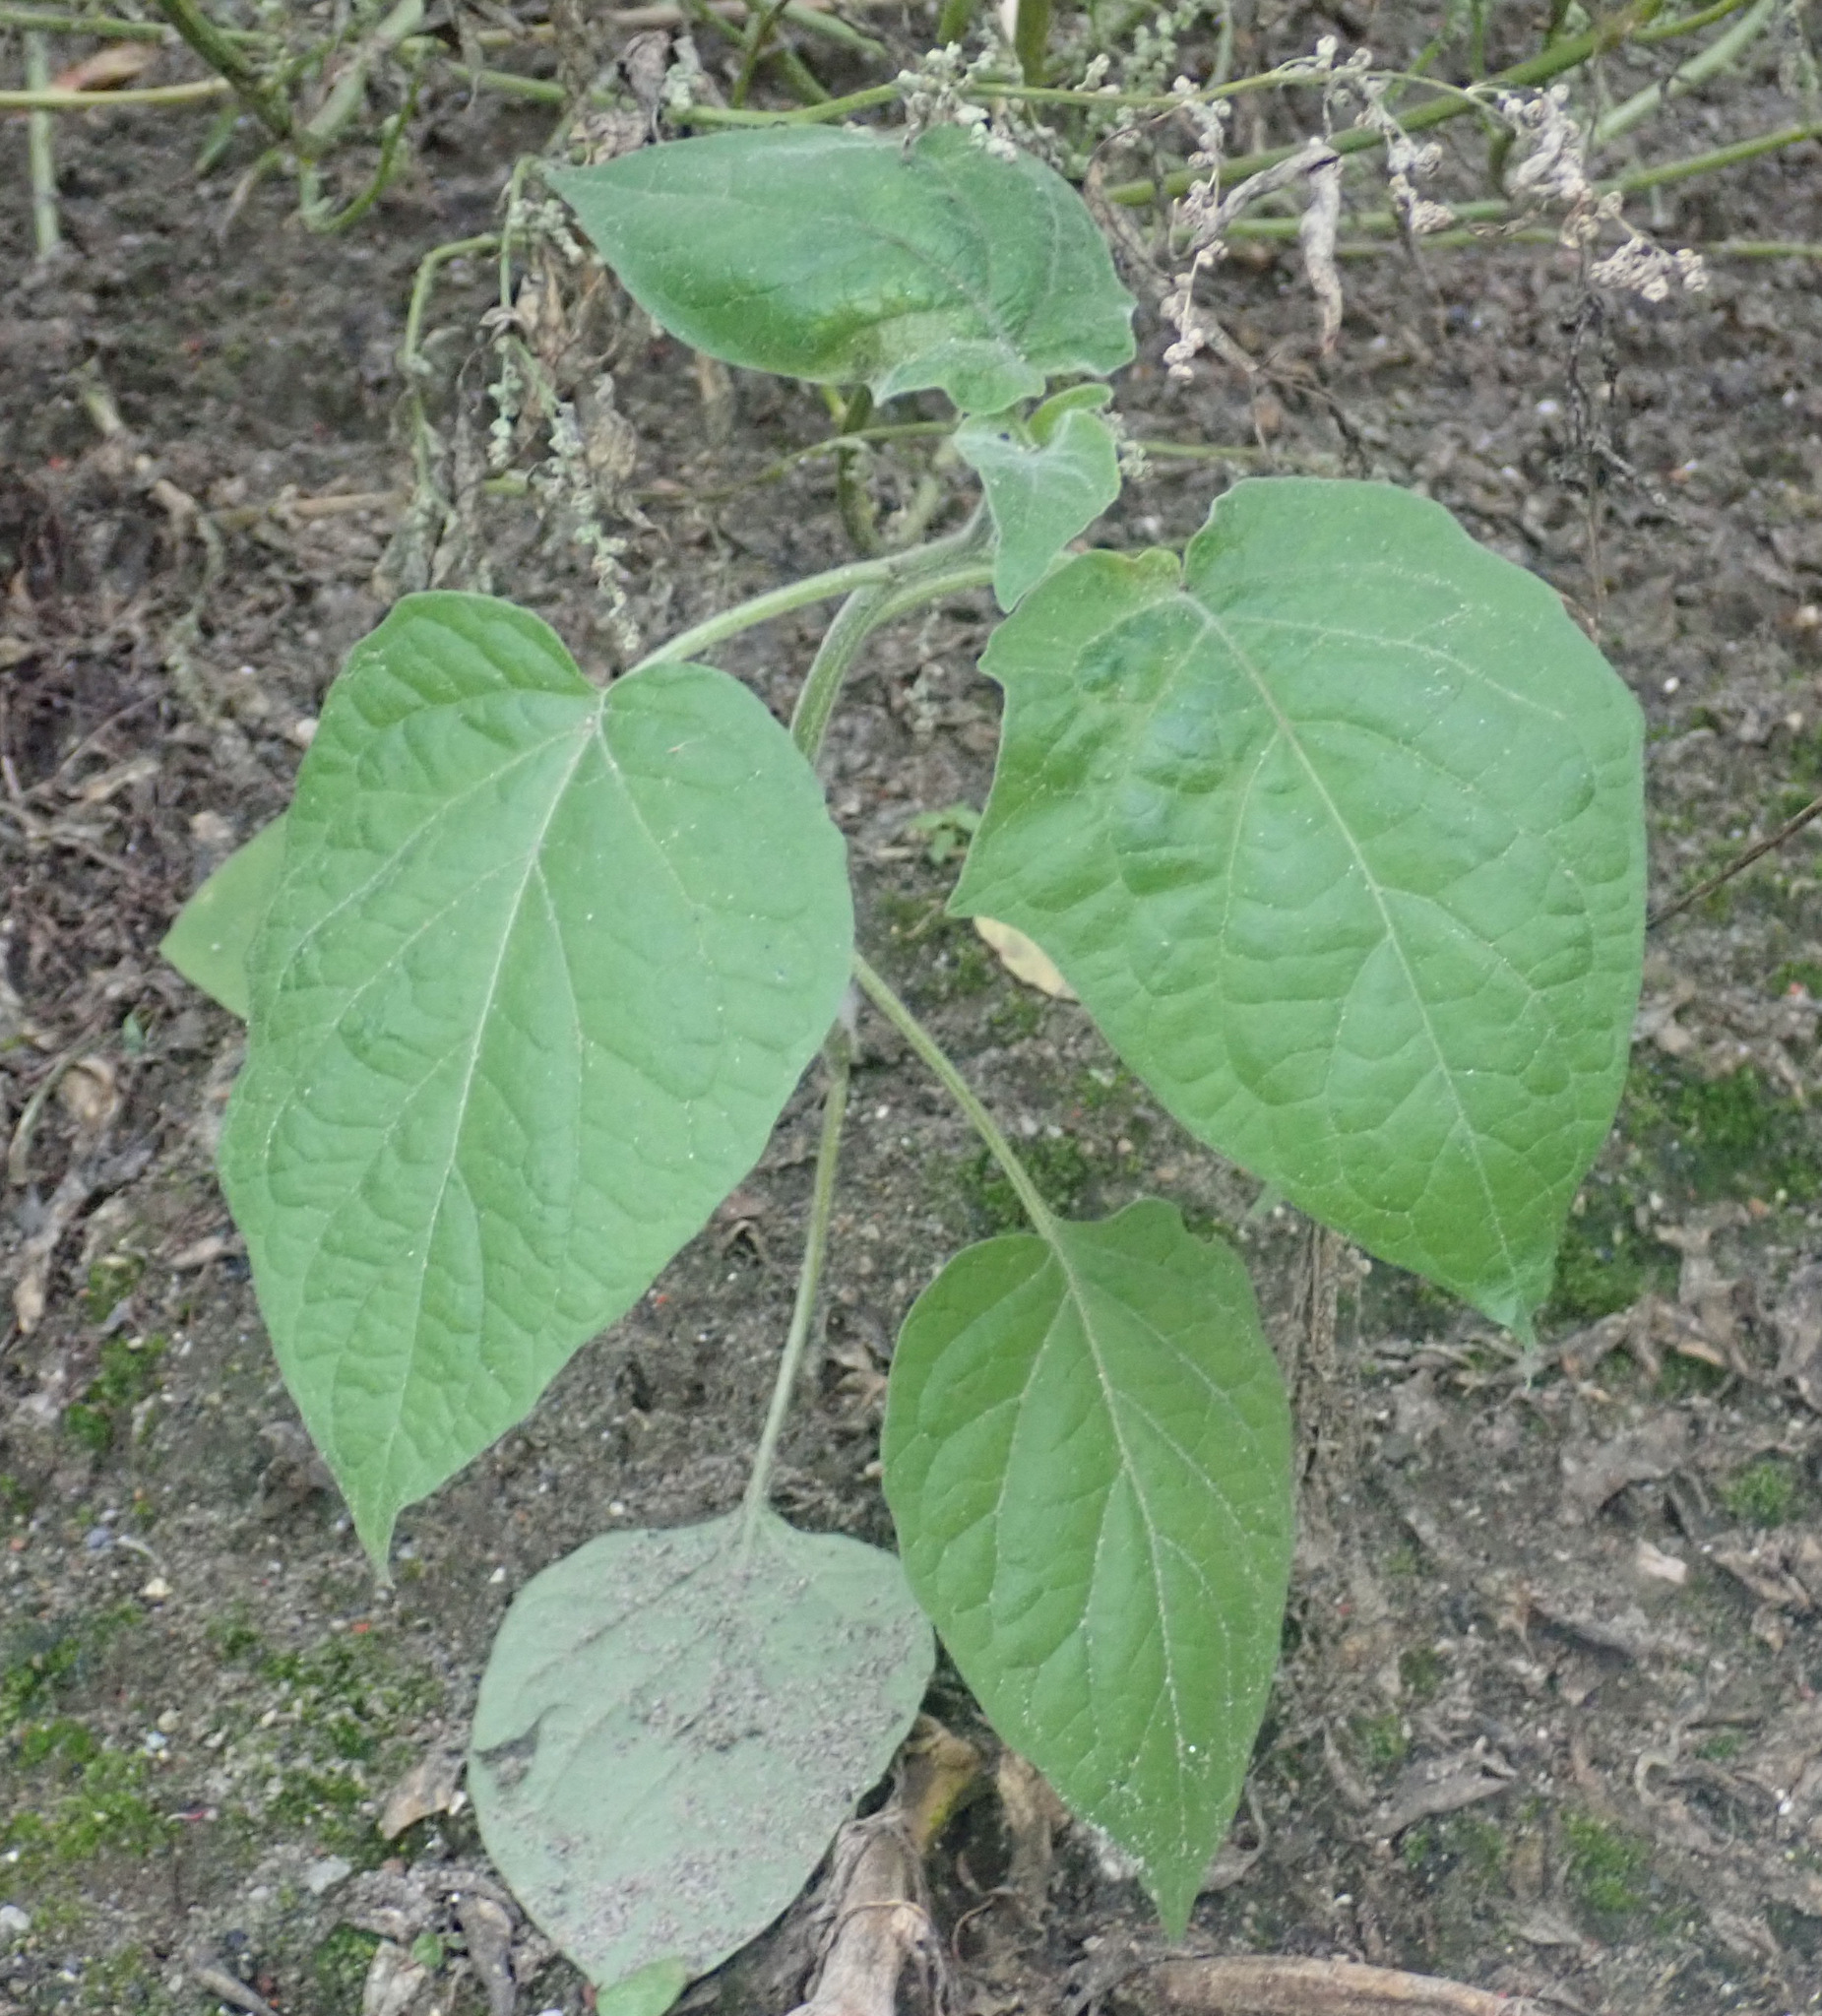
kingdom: Plantae
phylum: Tracheophyta
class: Magnoliopsida
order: Solanales
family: Solanaceae
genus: Physalis
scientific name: Physalis peruviana
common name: Cape-gooseberry
